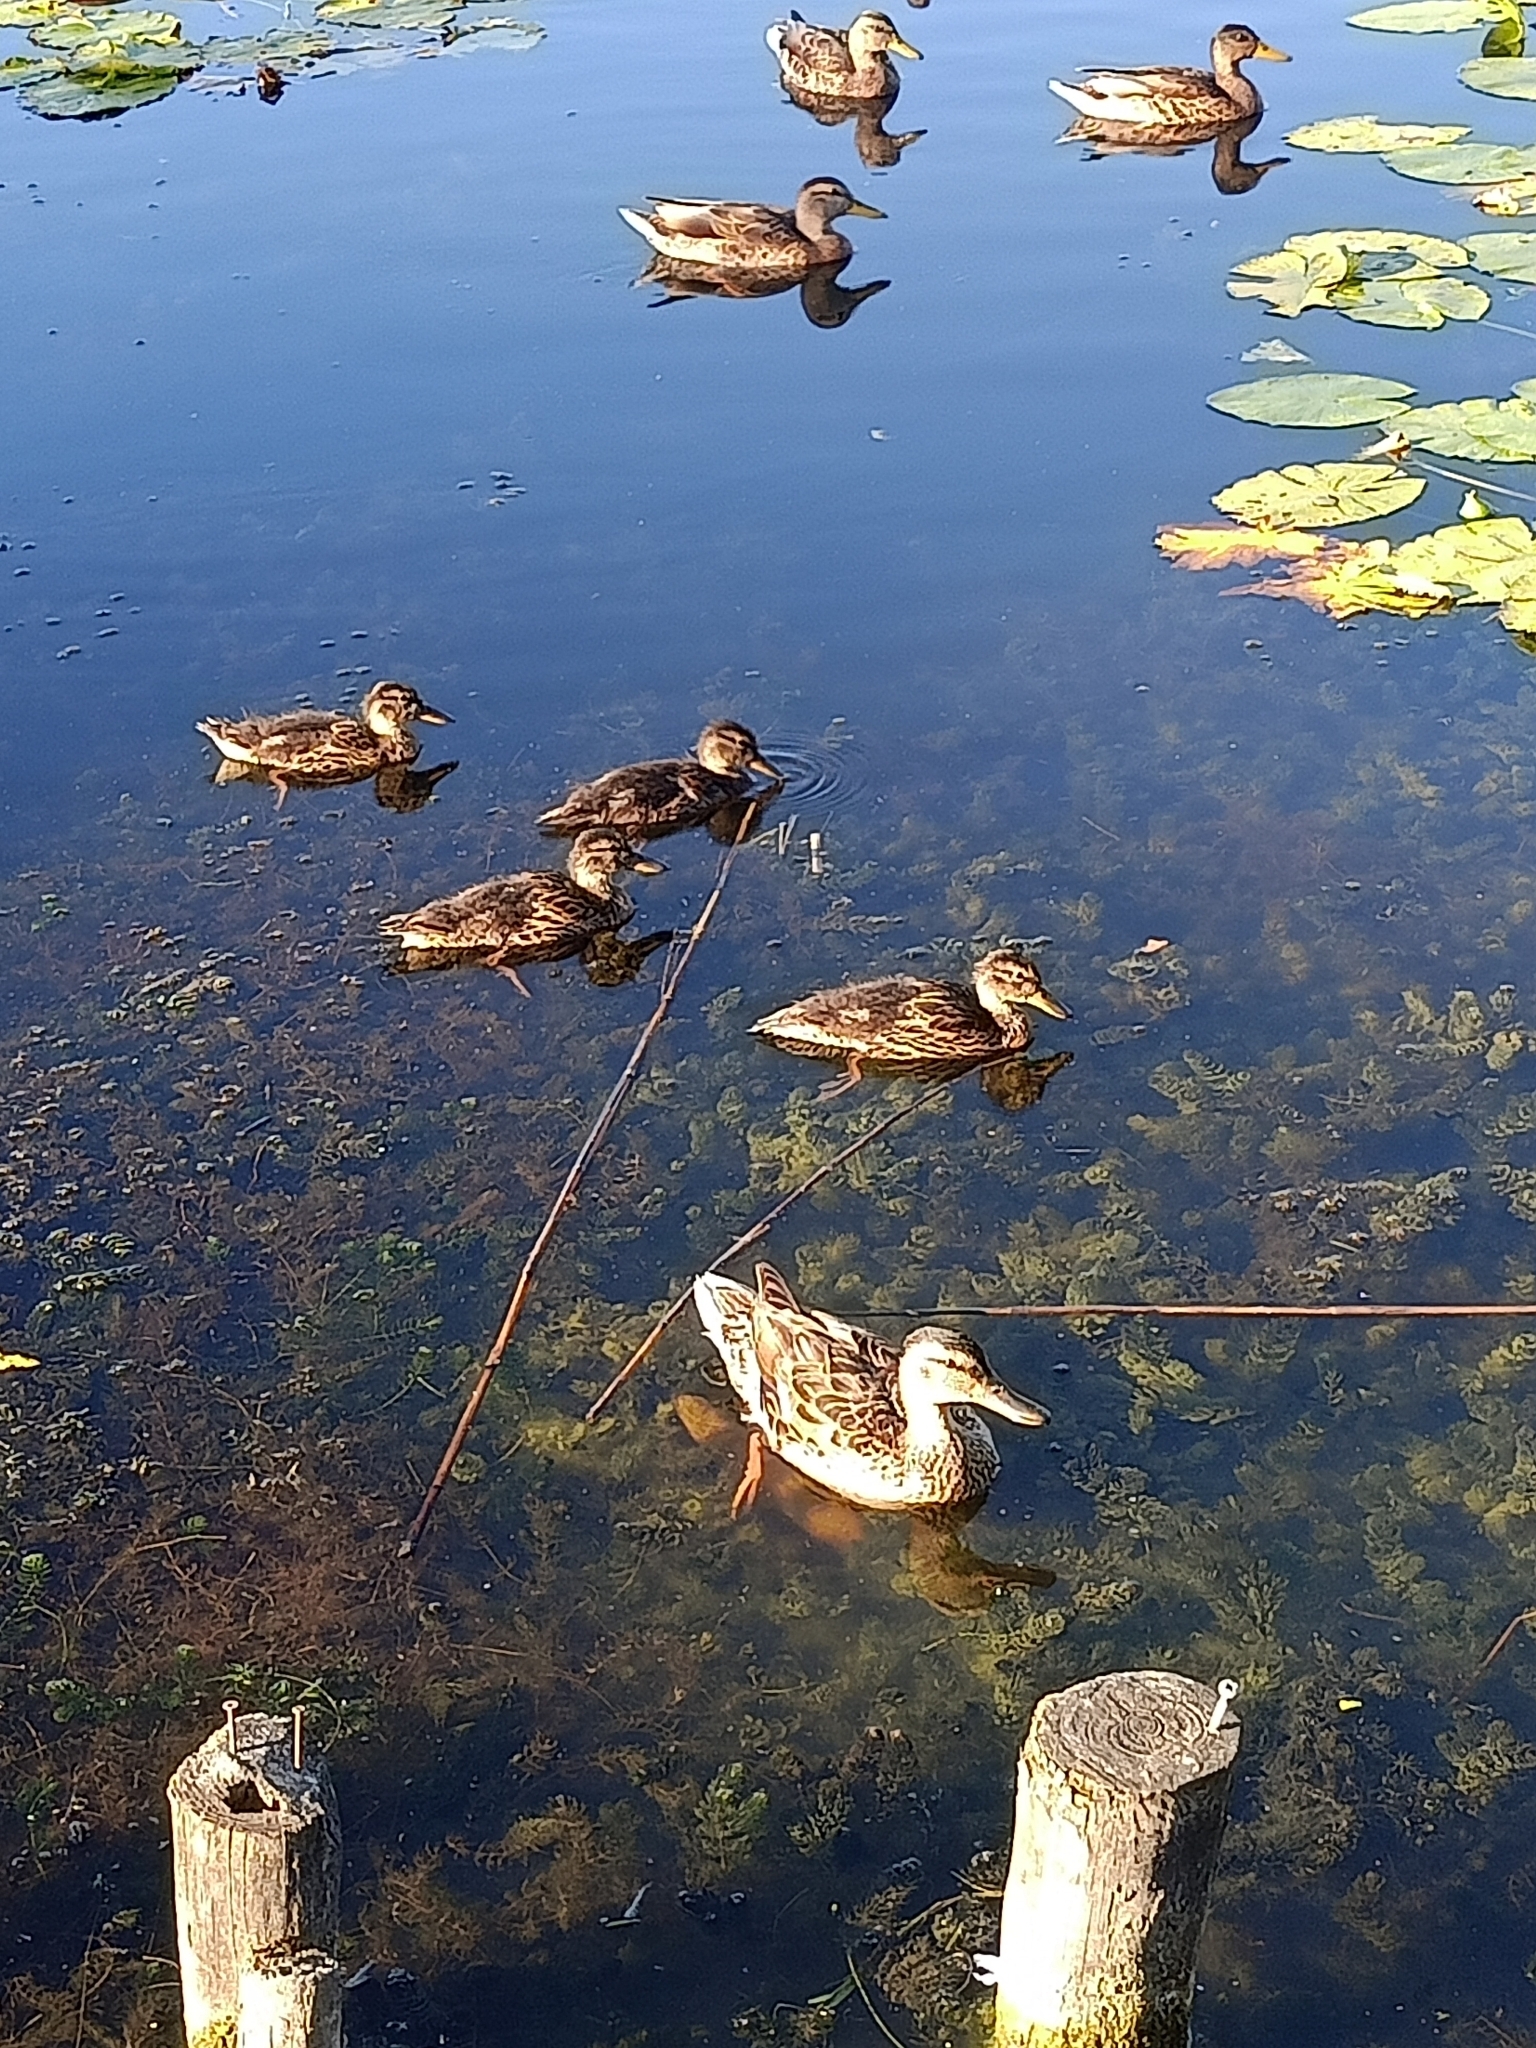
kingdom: Animalia
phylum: Chordata
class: Aves
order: Anseriformes
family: Anatidae
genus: Anas
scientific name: Anas platyrhynchos
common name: Mallard
